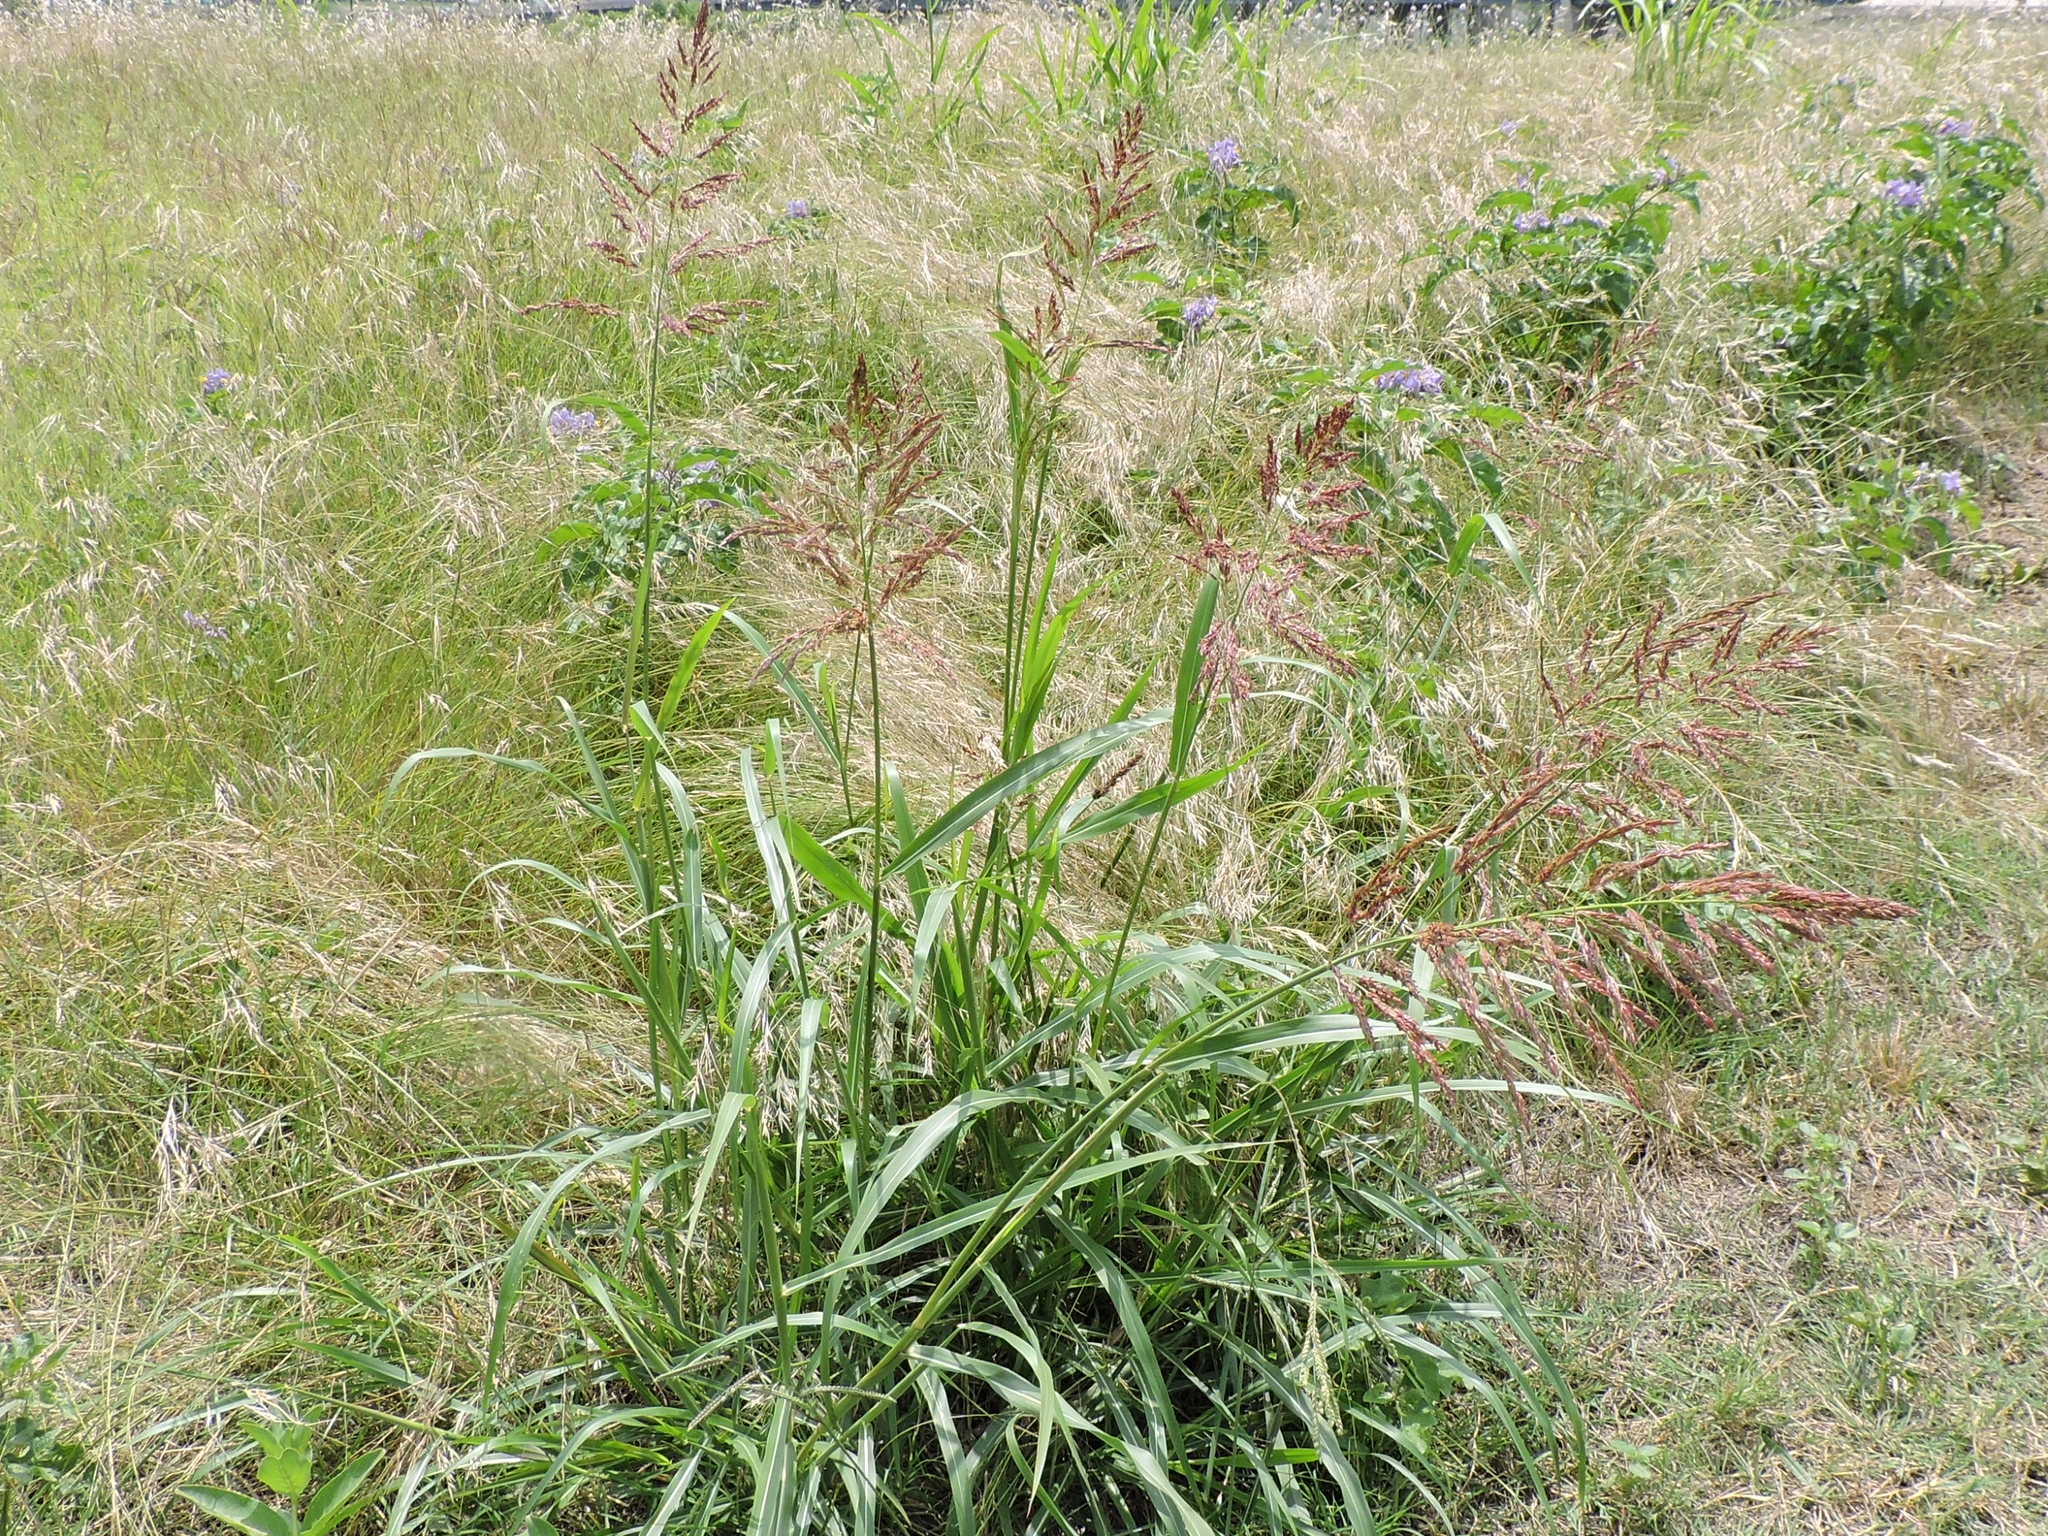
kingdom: Plantae
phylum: Tracheophyta
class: Liliopsida
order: Poales
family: Poaceae
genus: Sorghum
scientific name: Sorghum halepense
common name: Johnson-grass
